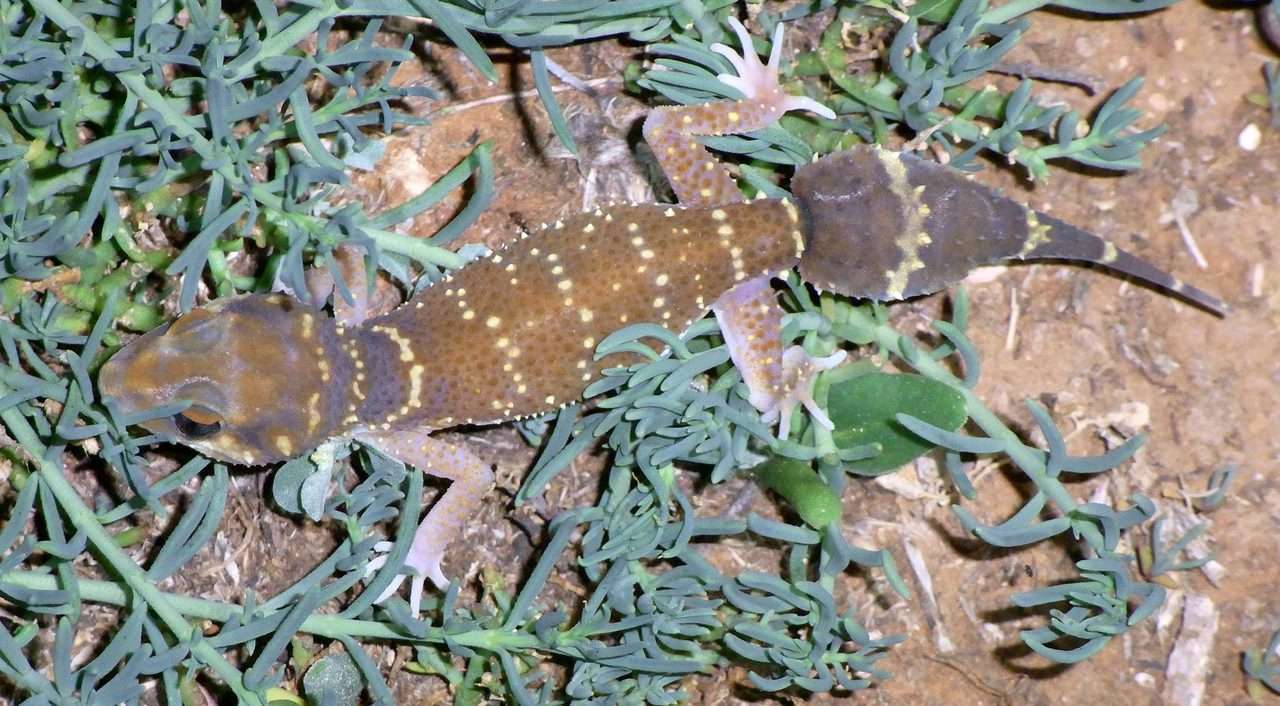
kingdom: Animalia
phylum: Chordata
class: Squamata
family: Carphodactylidae
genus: Underwoodisaurus
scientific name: Underwoodisaurus milii
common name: Barking gecko
